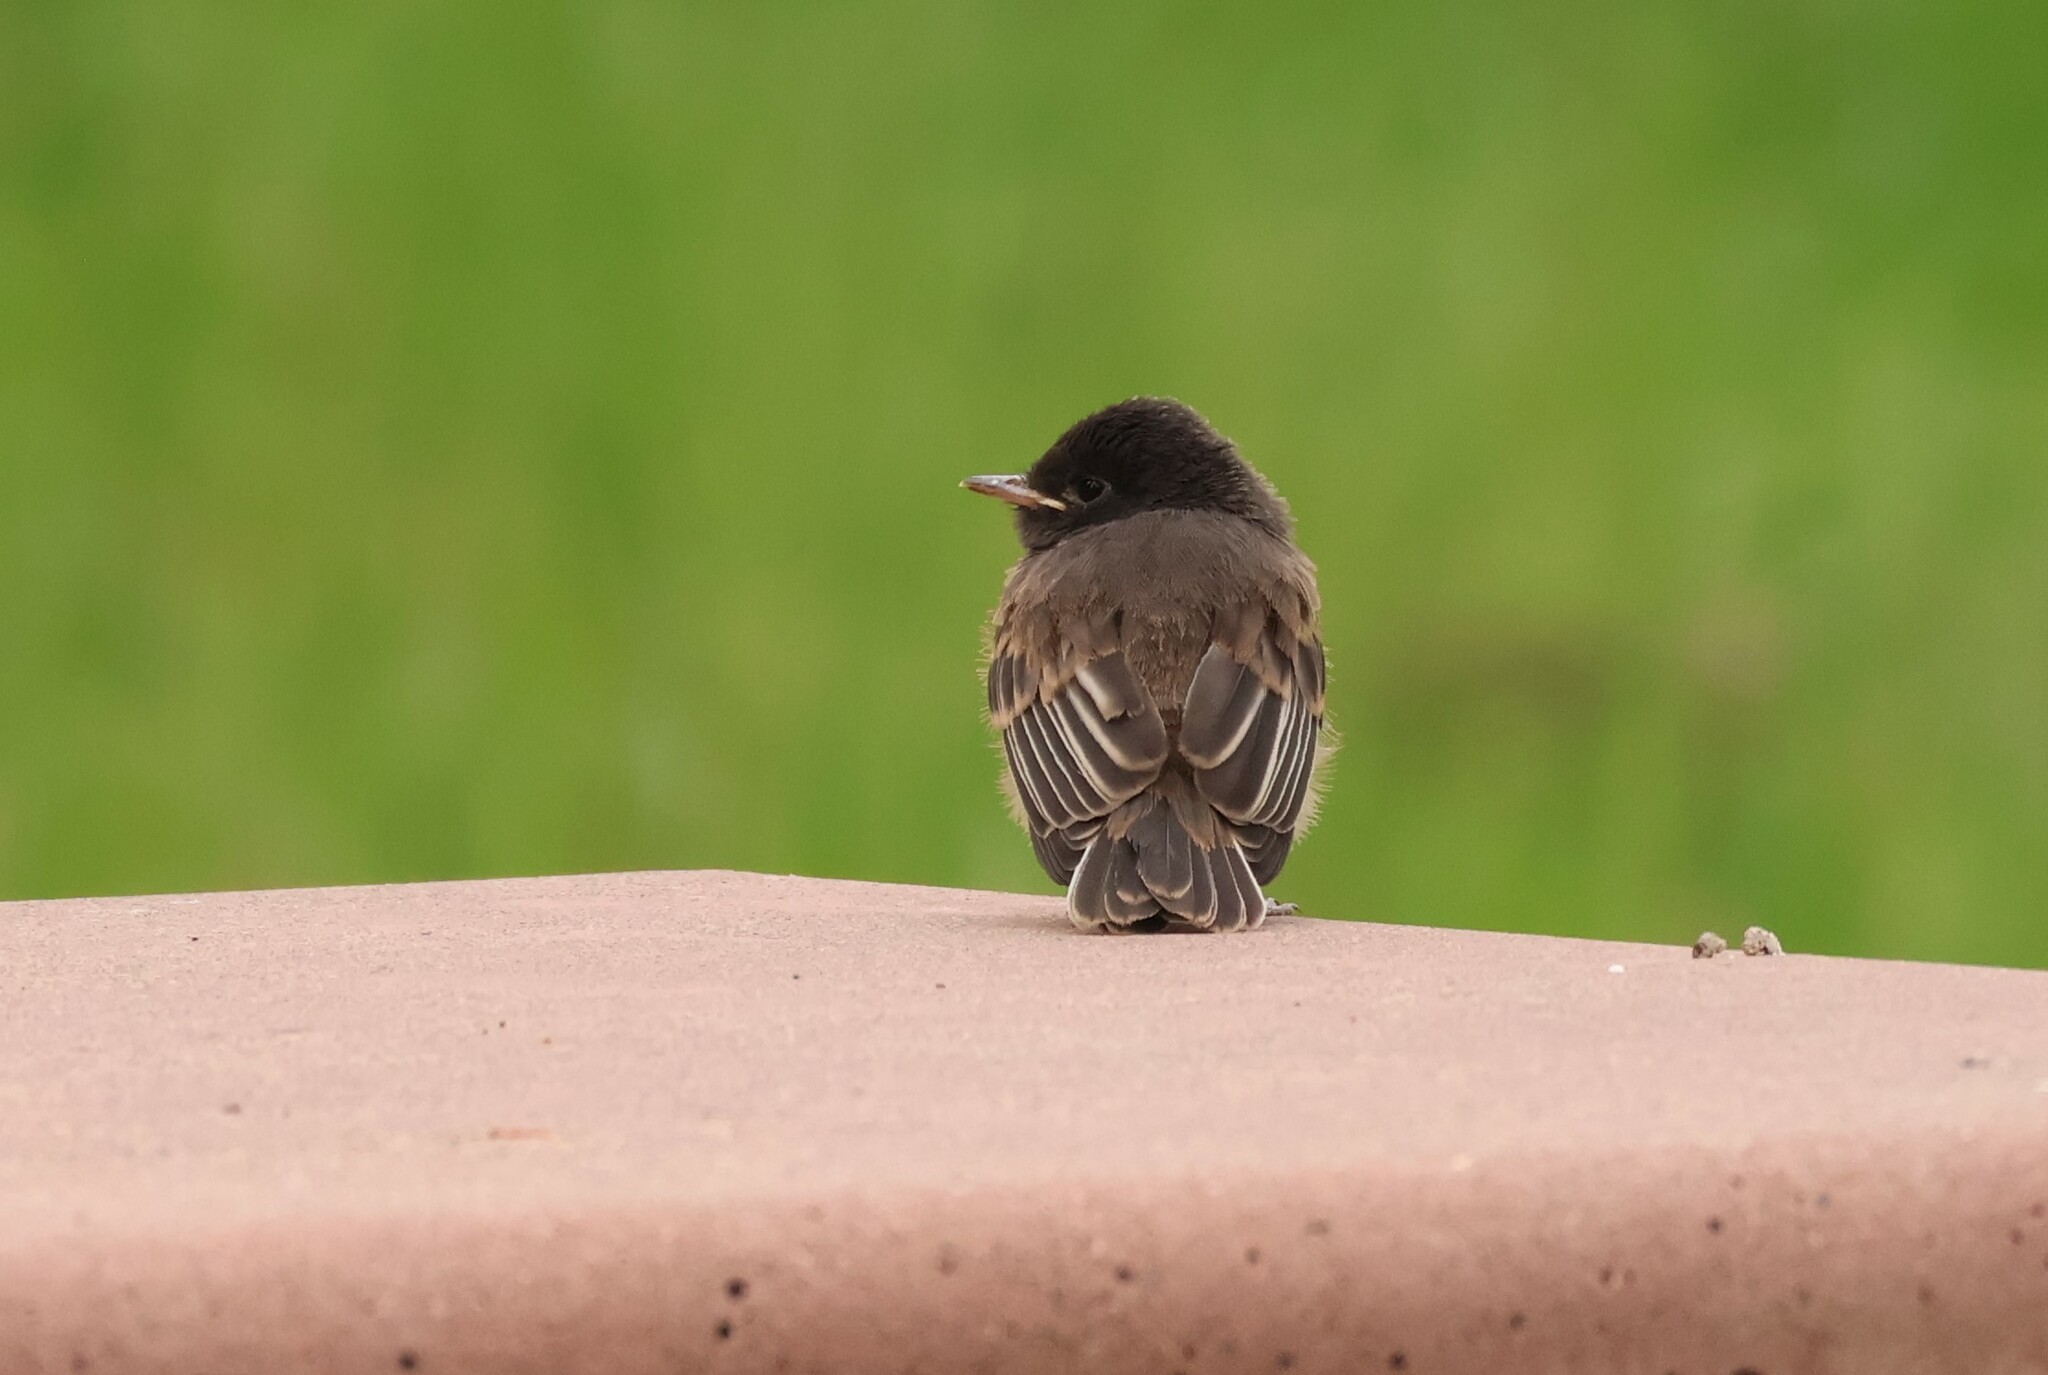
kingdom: Animalia
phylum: Chordata
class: Aves
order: Passeriformes
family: Tyrannidae
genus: Sayornis
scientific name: Sayornis nigricans
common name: Black phoebe
